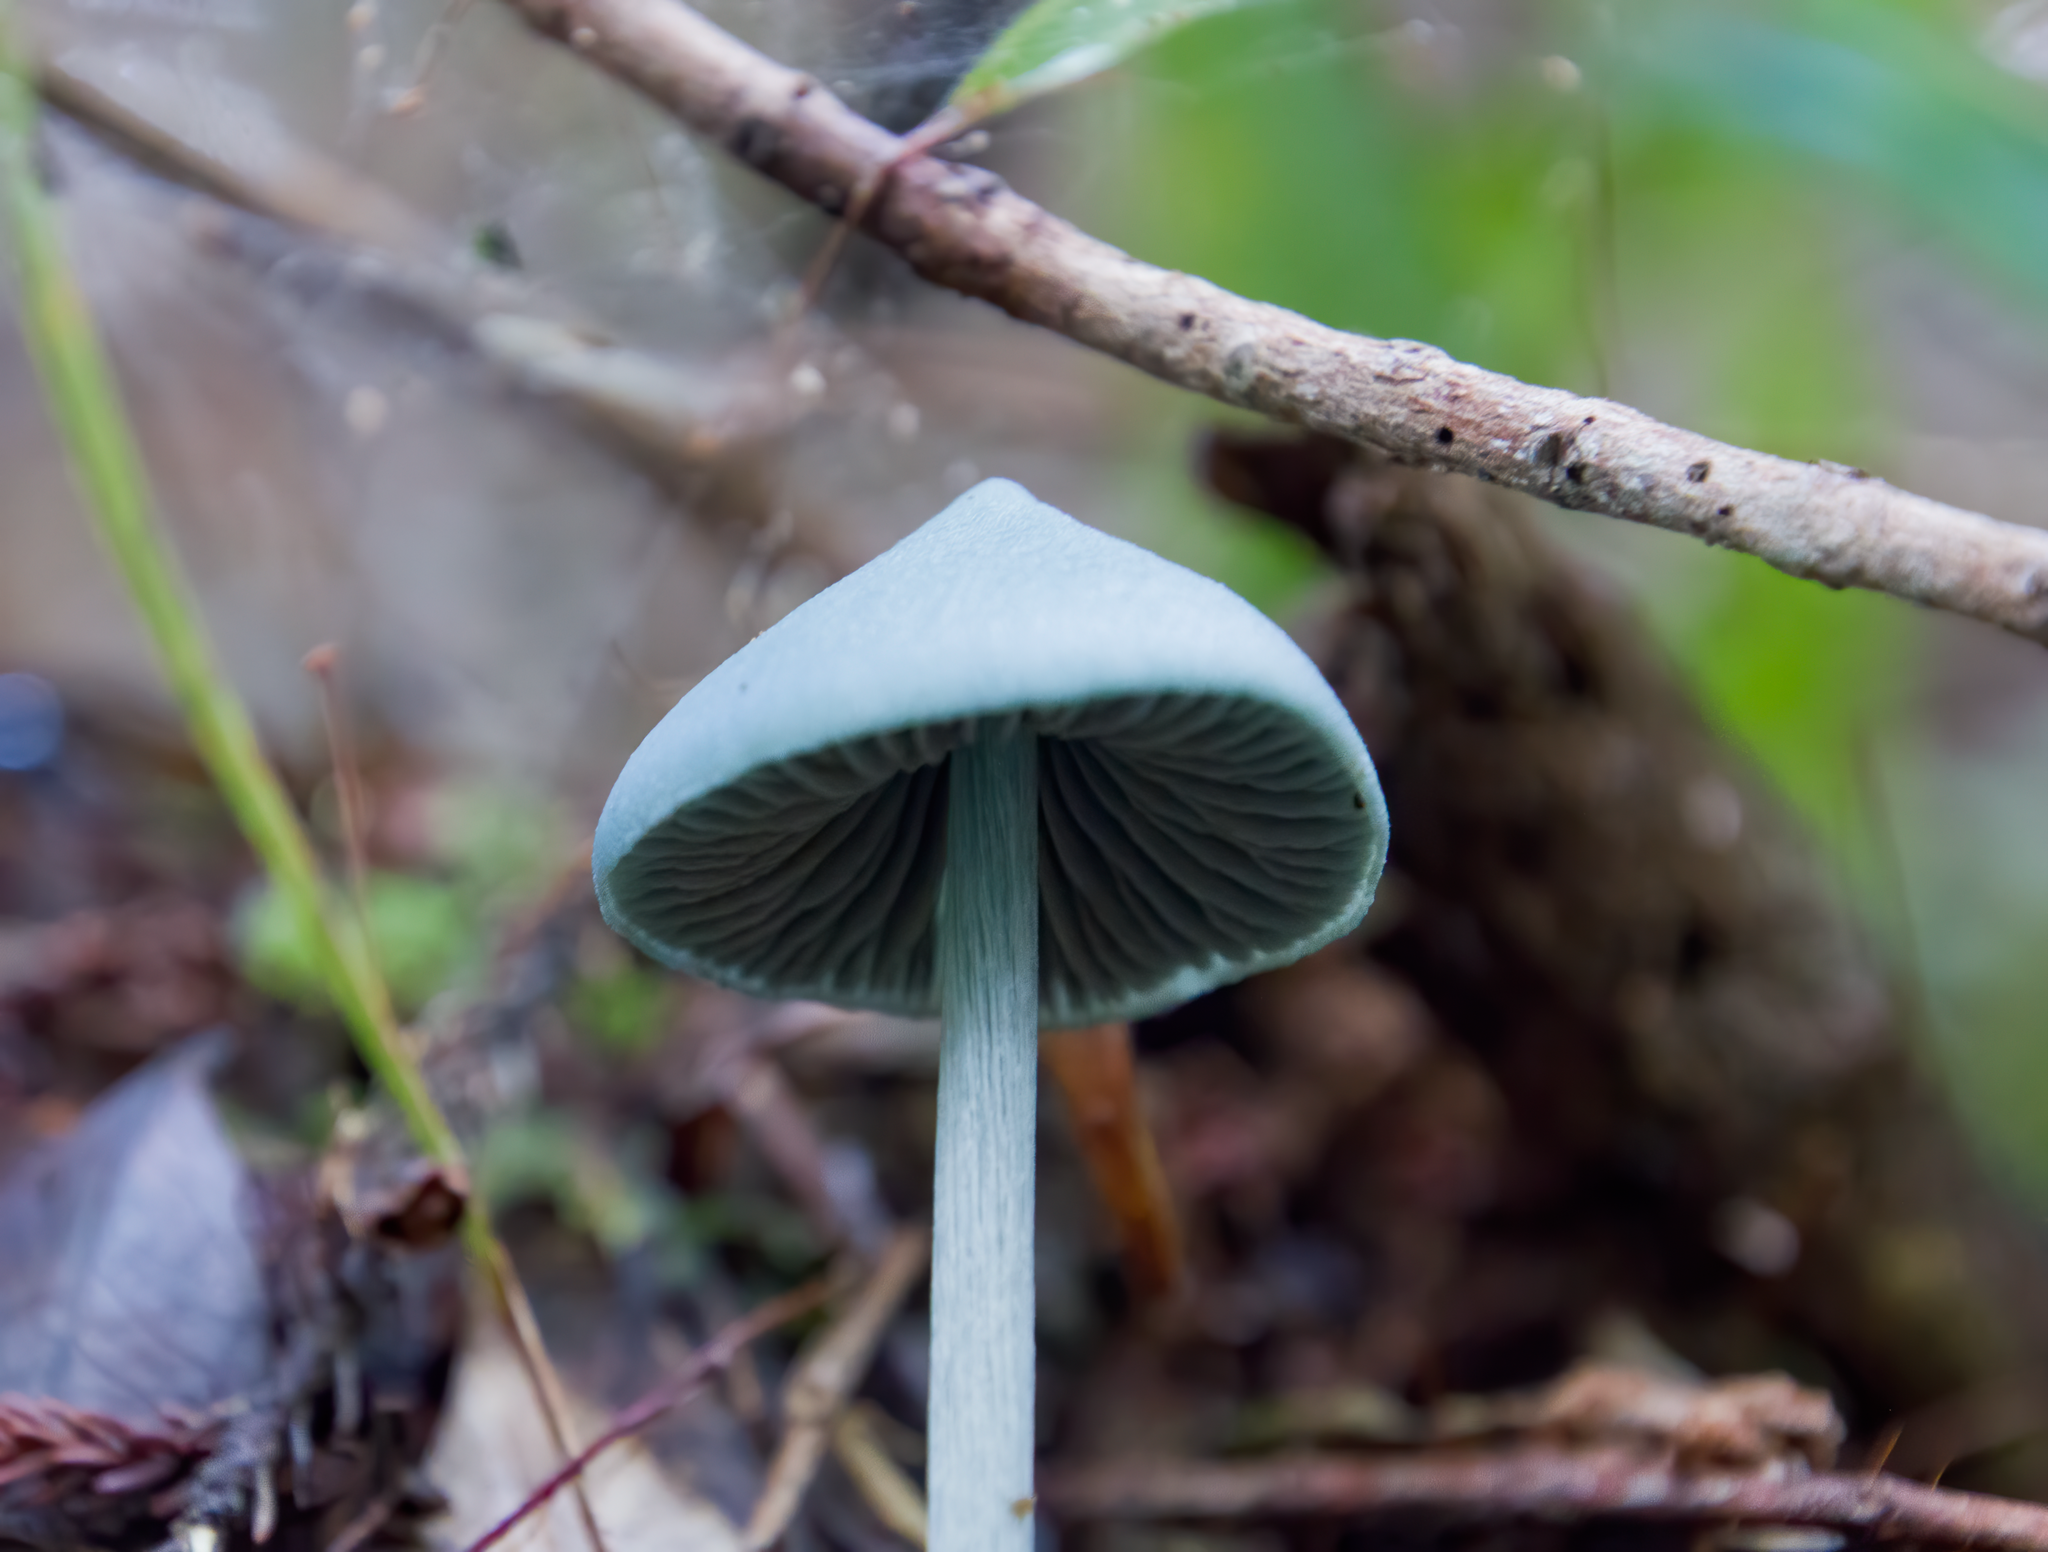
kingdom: Fungi
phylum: Basidiomycota
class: Agaricomycetes
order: Agaricales
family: Entolomataceae
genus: Entoloma
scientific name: Entoloma hochstetteri
